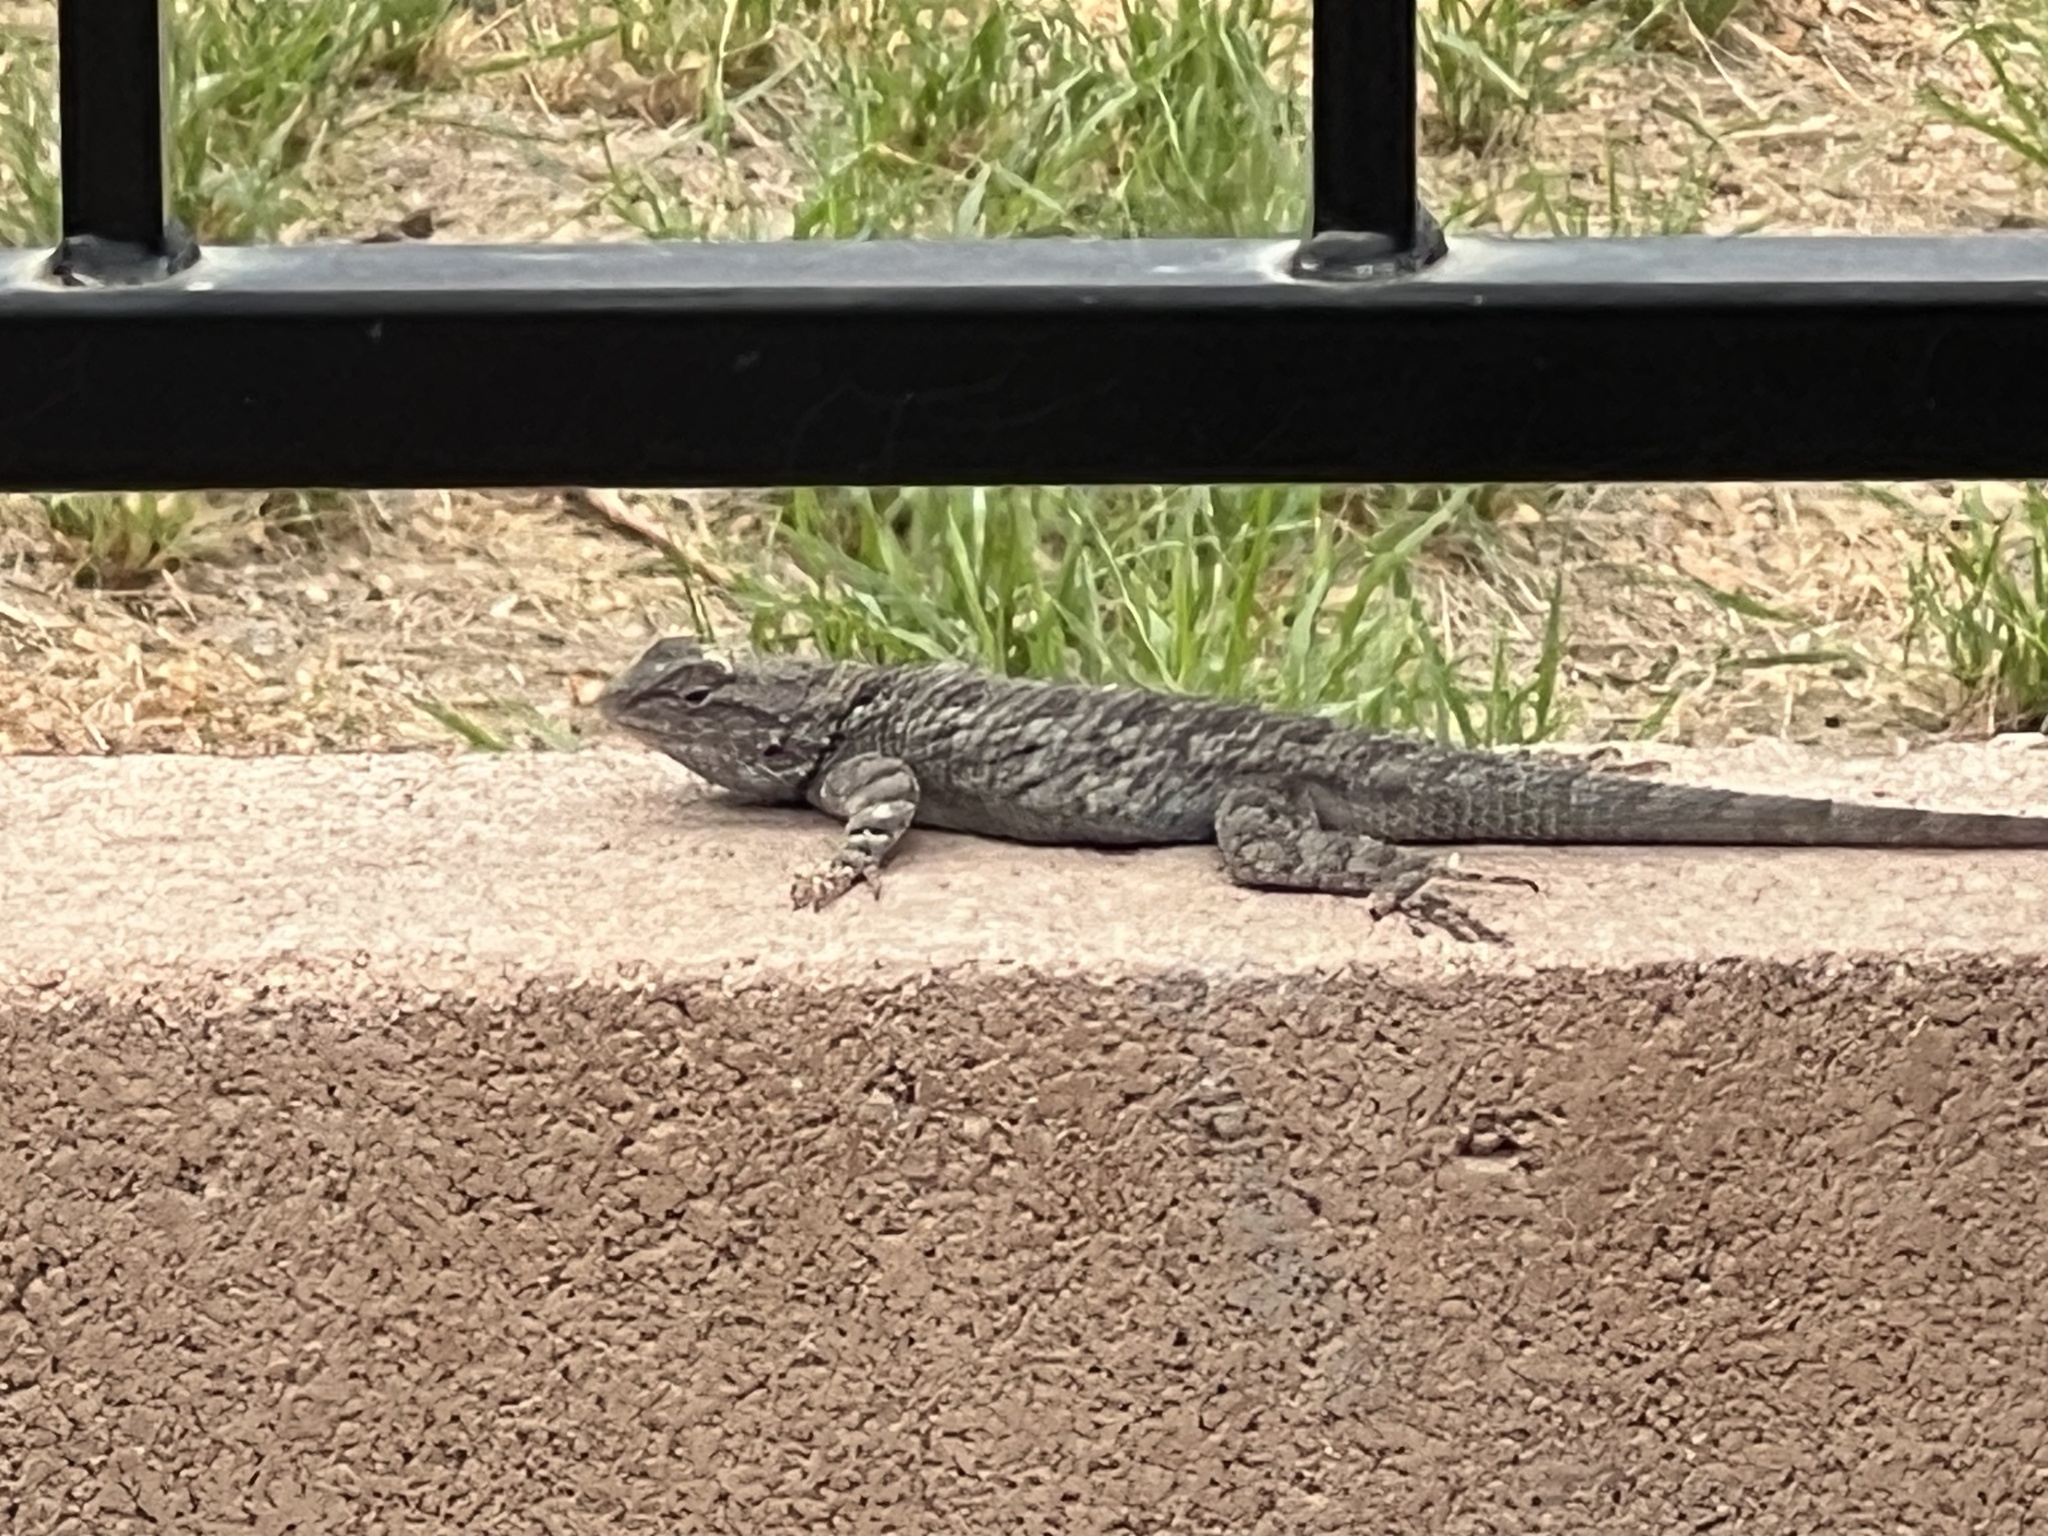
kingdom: Animalia
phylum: Chordata
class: Squamata
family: Phrynosomatidae
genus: Sceloporus
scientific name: Sceloporus clarkii
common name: Clark's spiny lizard
